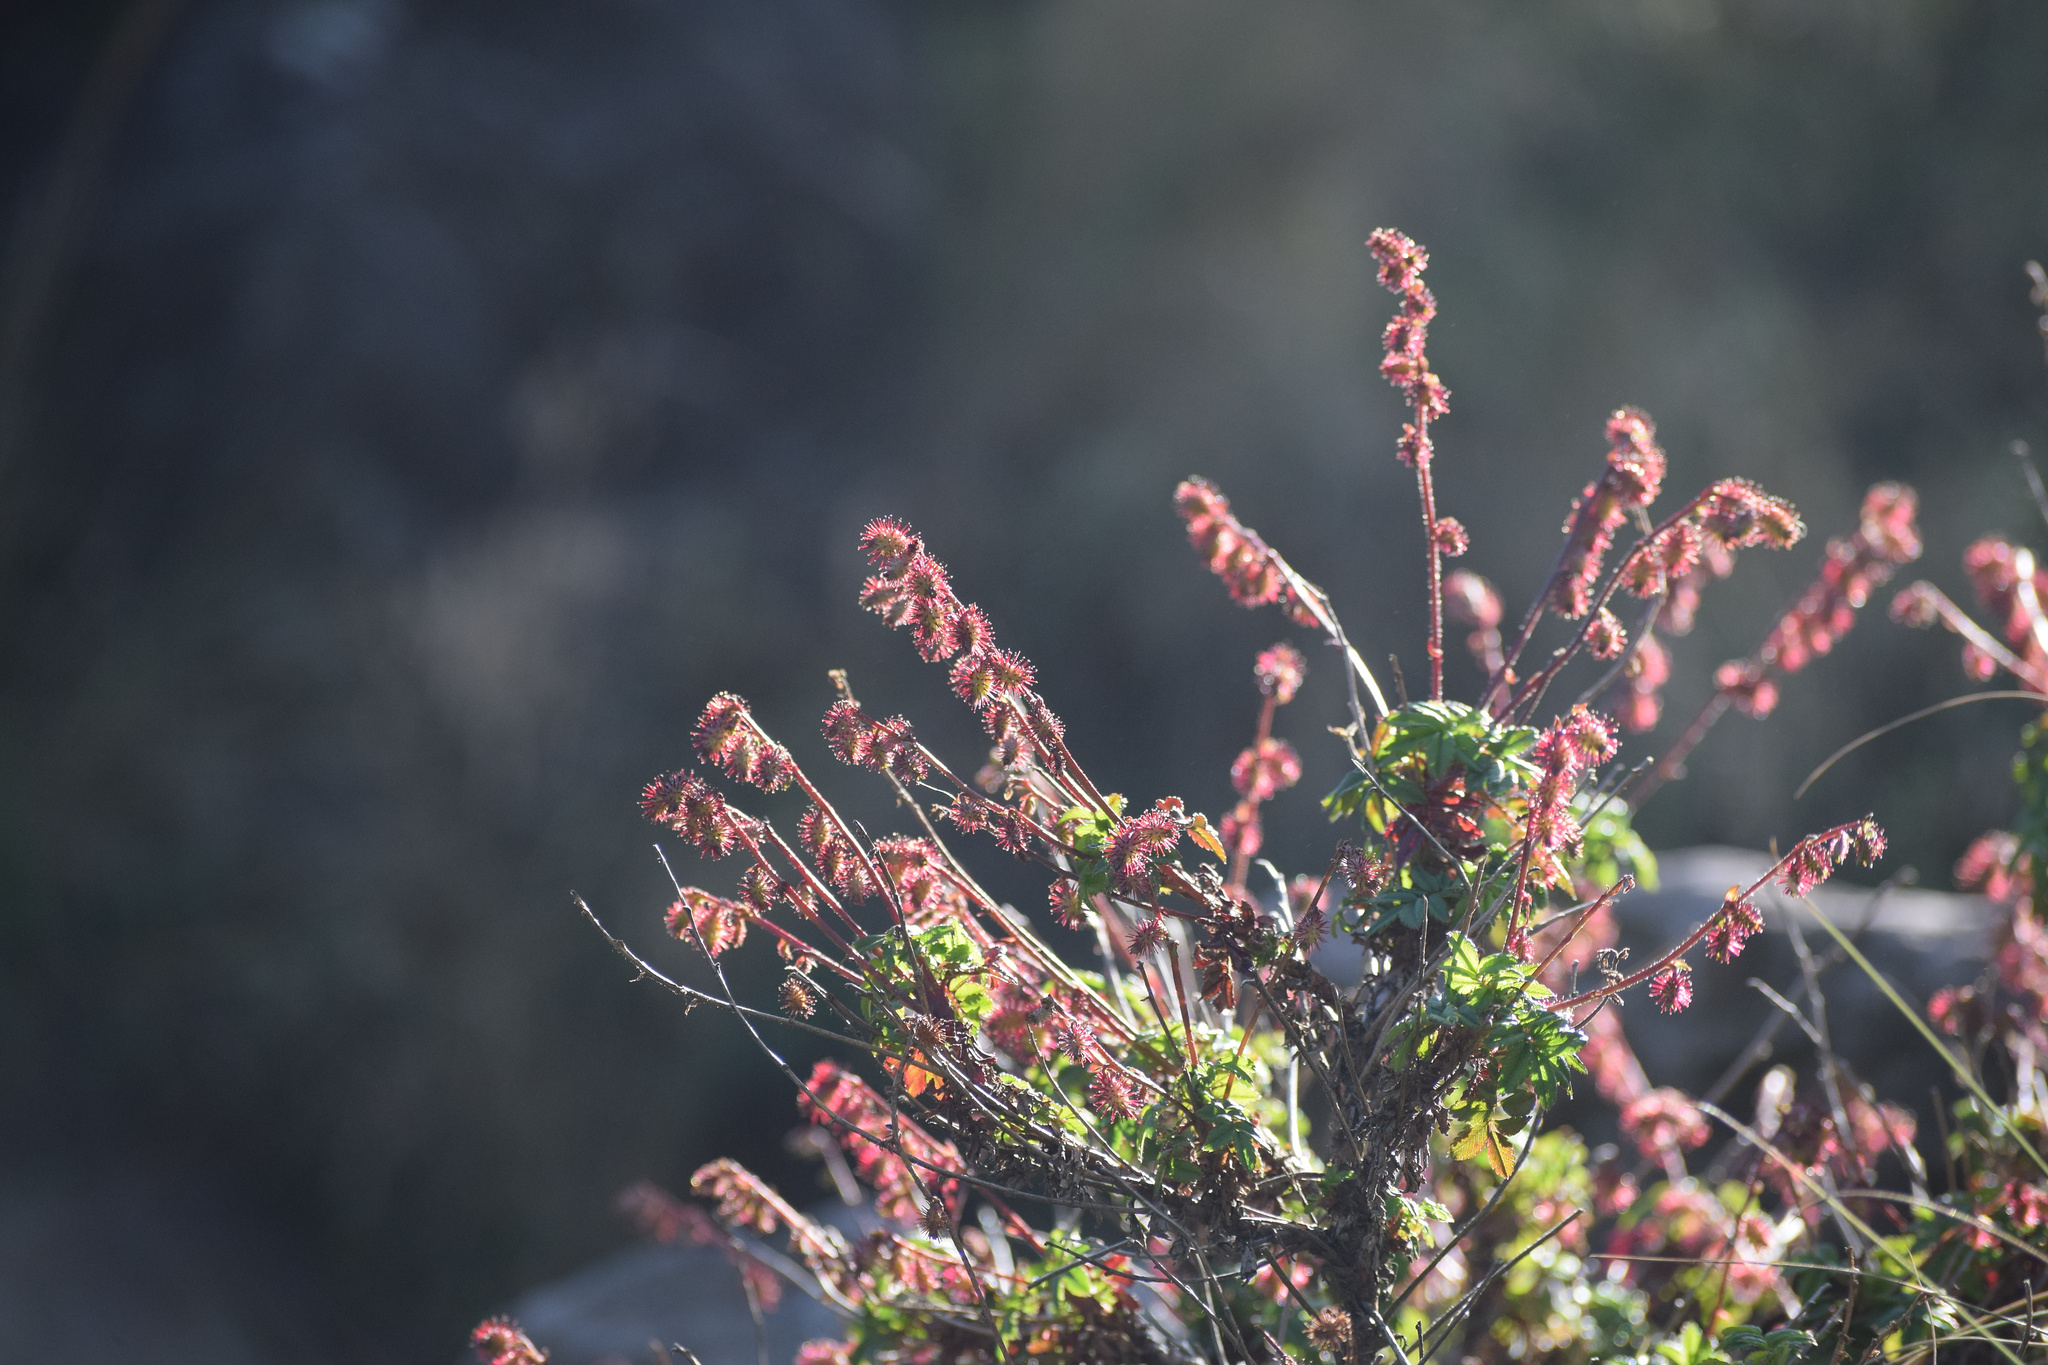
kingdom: Plantae
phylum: Tracheophyta
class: Magnoliopsida
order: Rosales
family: Rosaceae
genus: Acaena
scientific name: Acaena elongata
